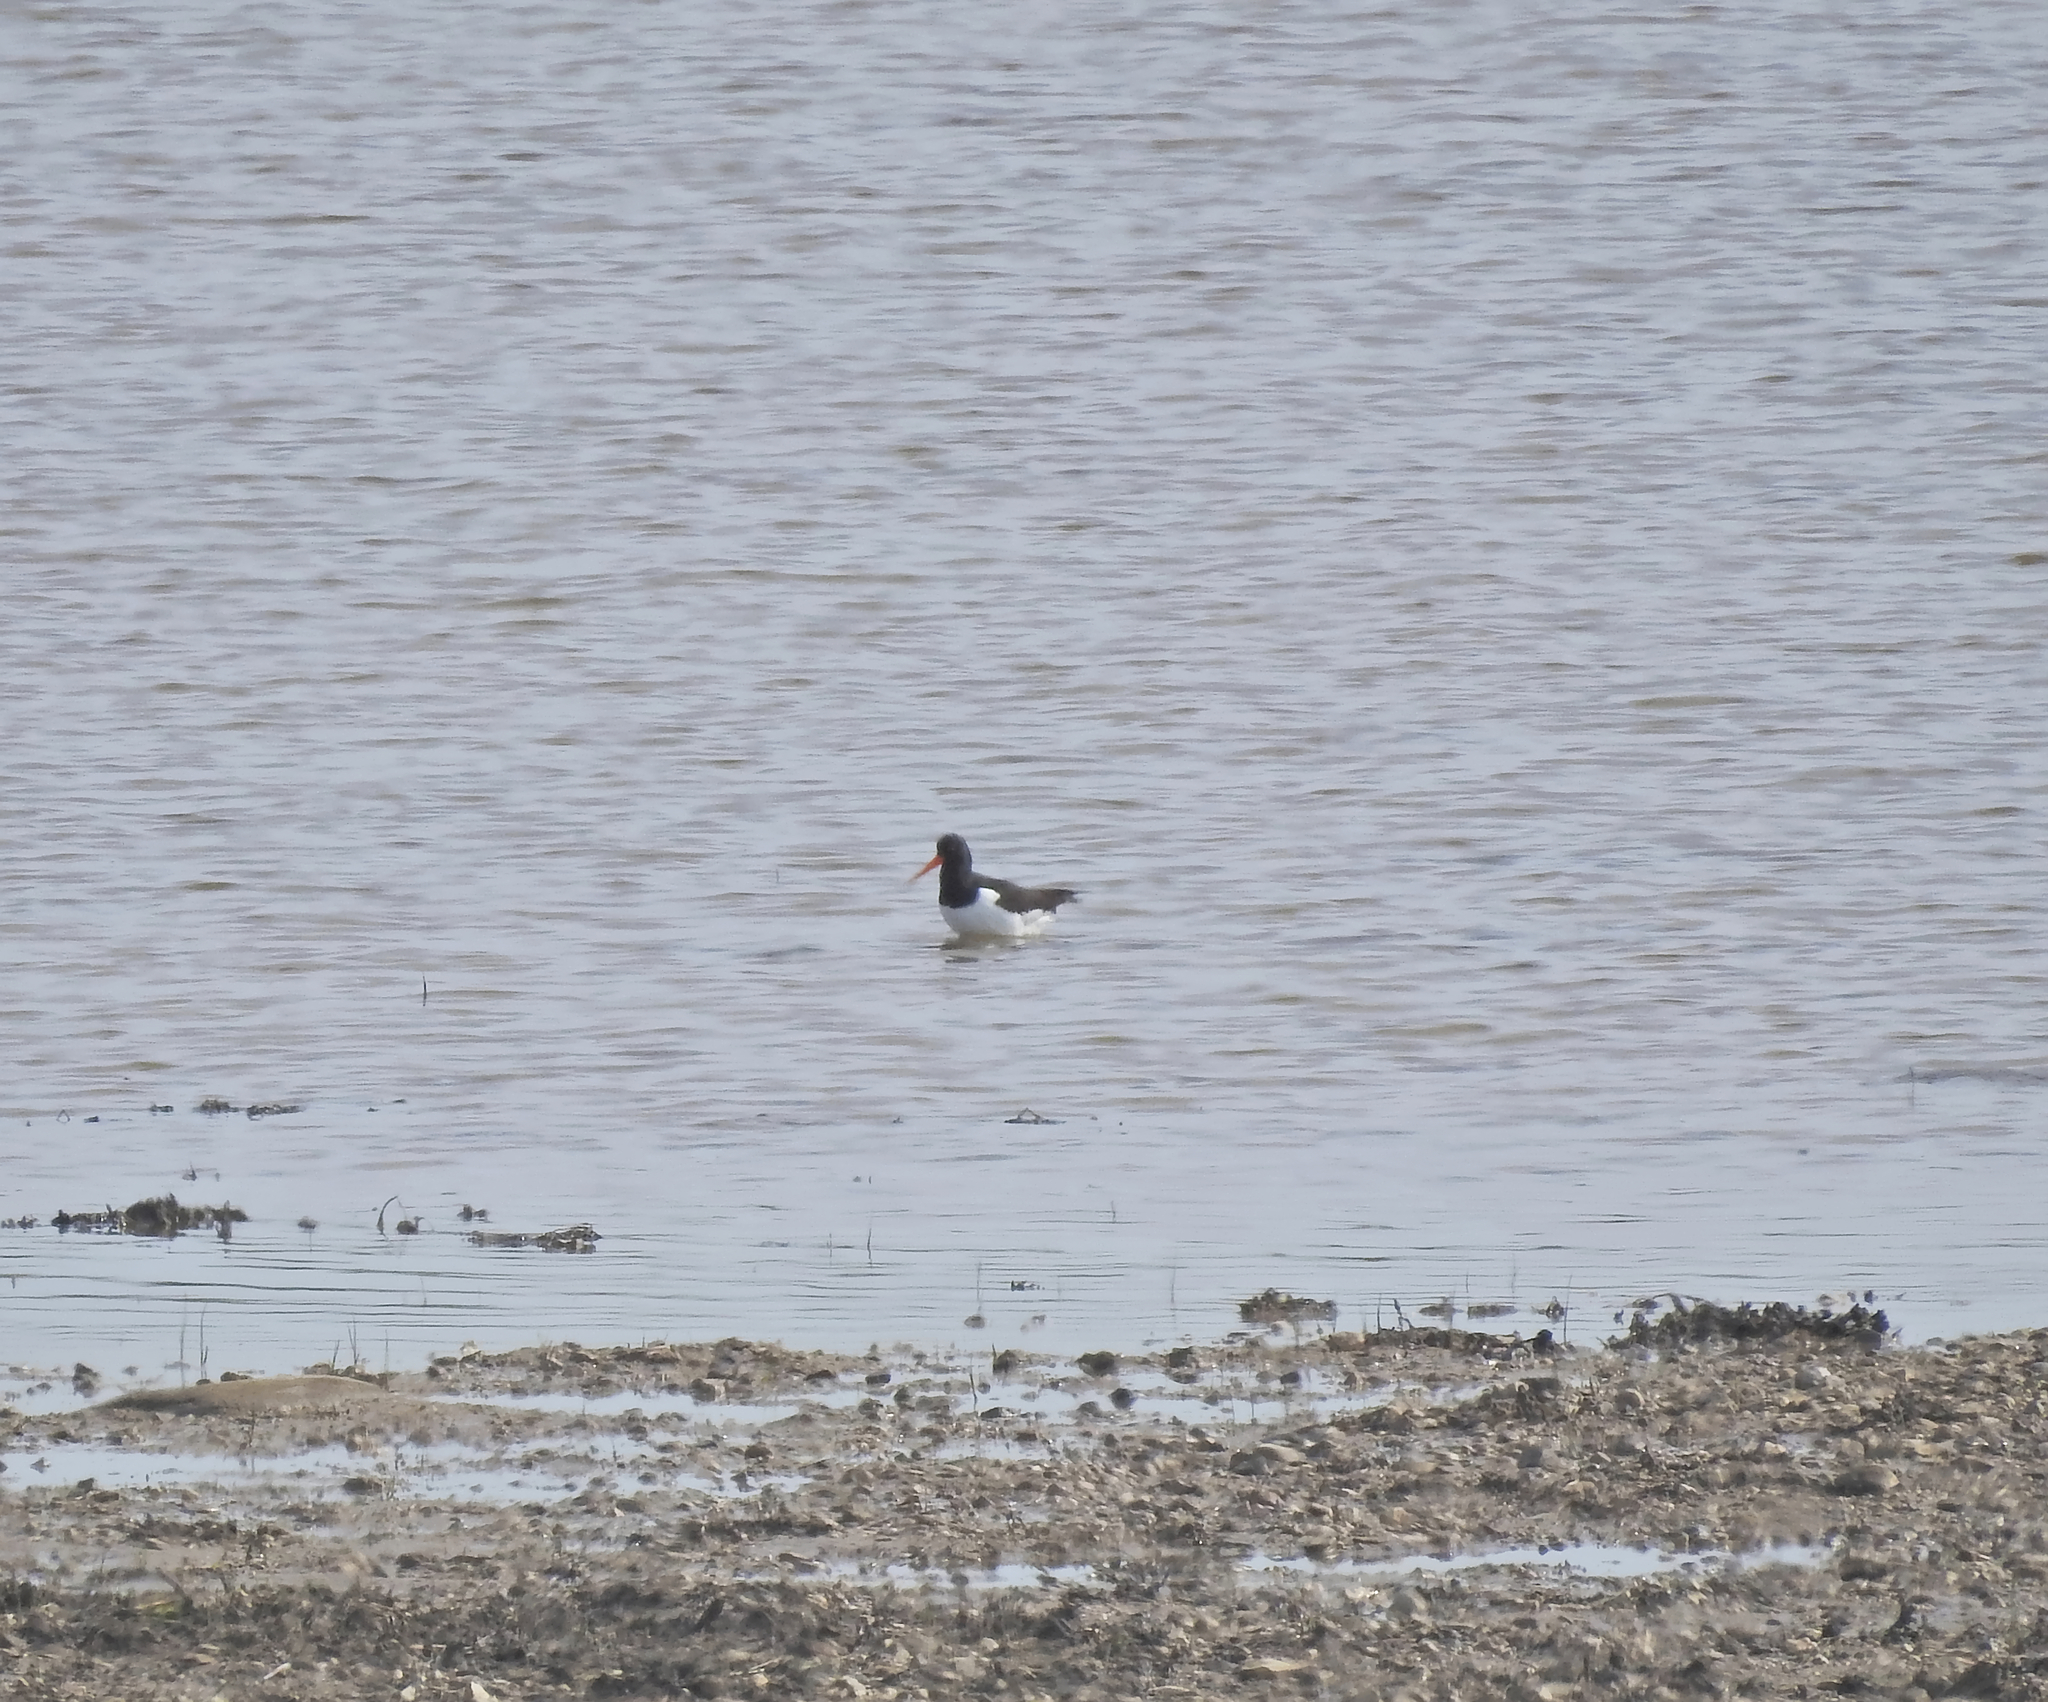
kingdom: Animalia
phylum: Chordata
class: Aves
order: Charadriiformes
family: Haematopodidae
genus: Haematopus
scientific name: Haematopus ostralegus
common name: Eurasian oystercatcher
